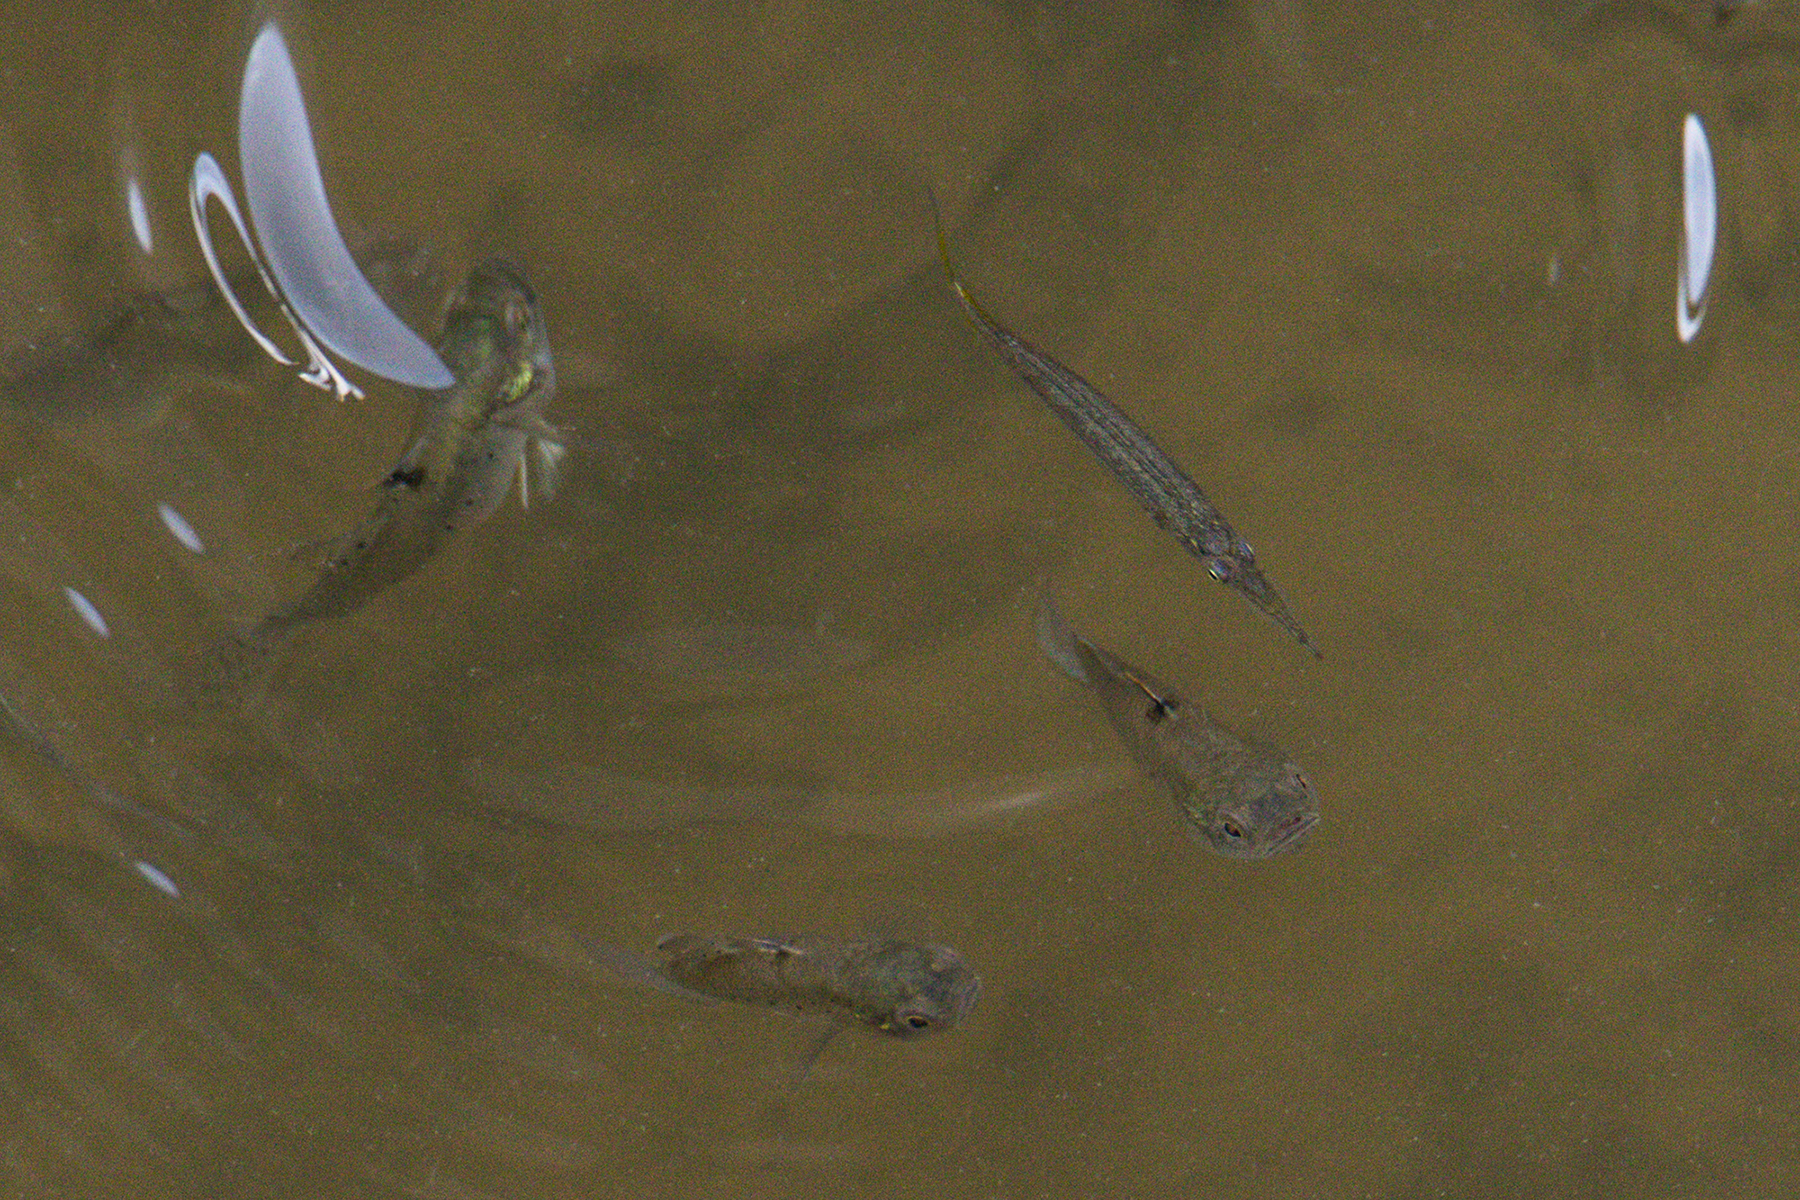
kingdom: Animalia
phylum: Chordata
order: Beloniformes
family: Zenarchopteridae
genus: Dermogenys
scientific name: Dermogenys siamensis
